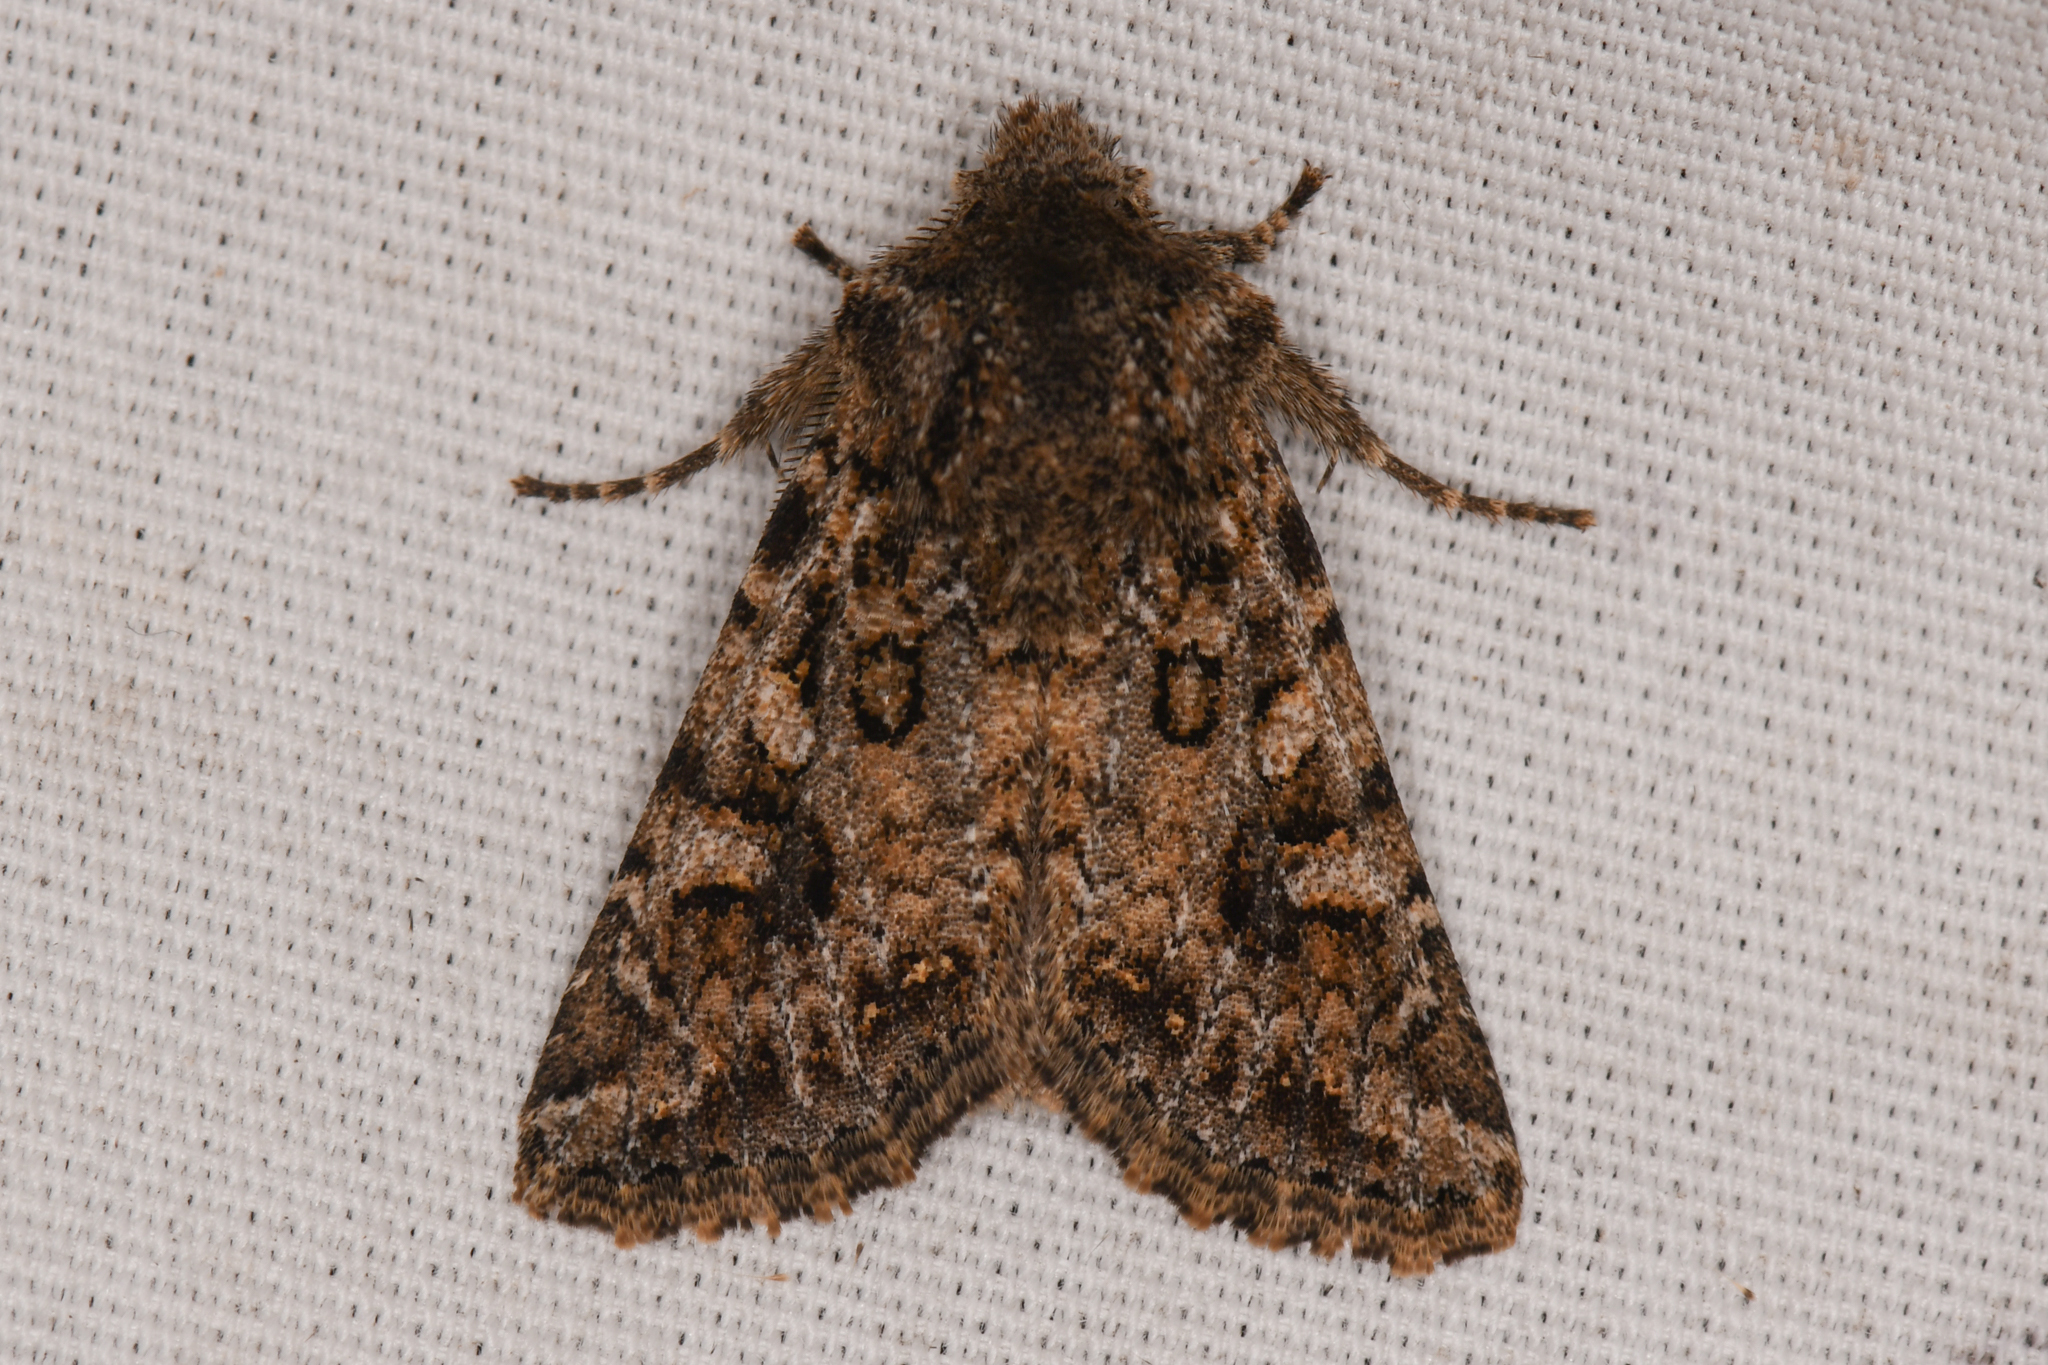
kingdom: Animalia
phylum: Arthropoda
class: Insecta
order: Lepidoptera
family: Noctuidae
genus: Miodera
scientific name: Miodera stigmata
